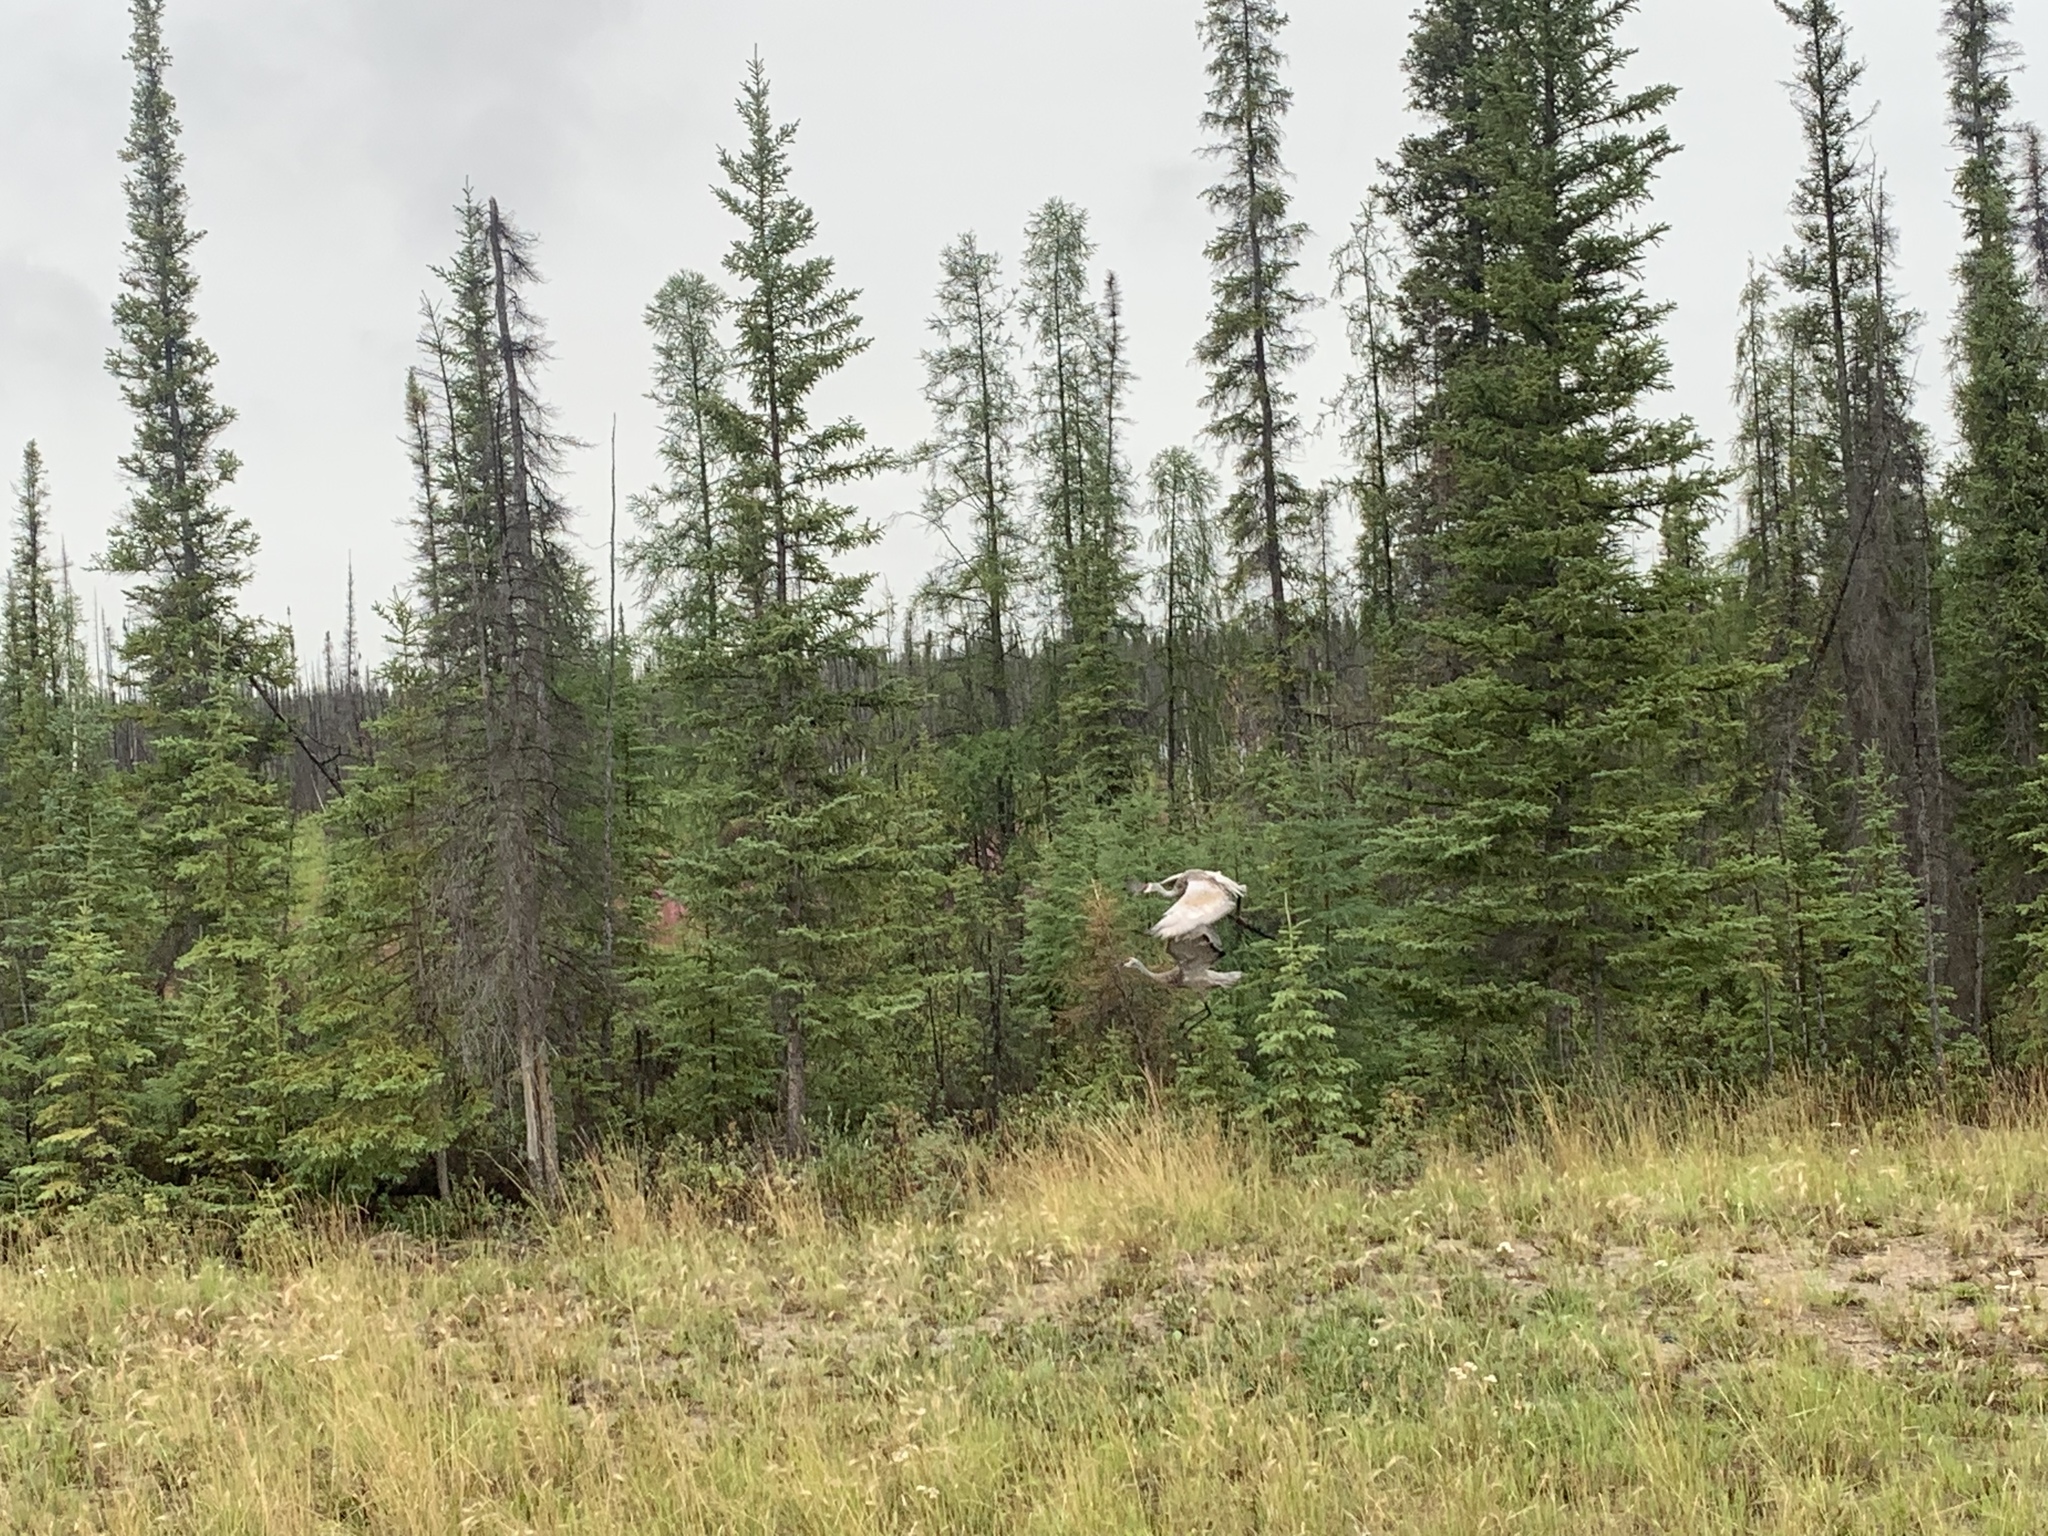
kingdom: Animalia
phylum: Chordata
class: Aves
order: Gruiformes
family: Gruidae
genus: Grus
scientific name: Grus canadensis
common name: Sandhill crane
